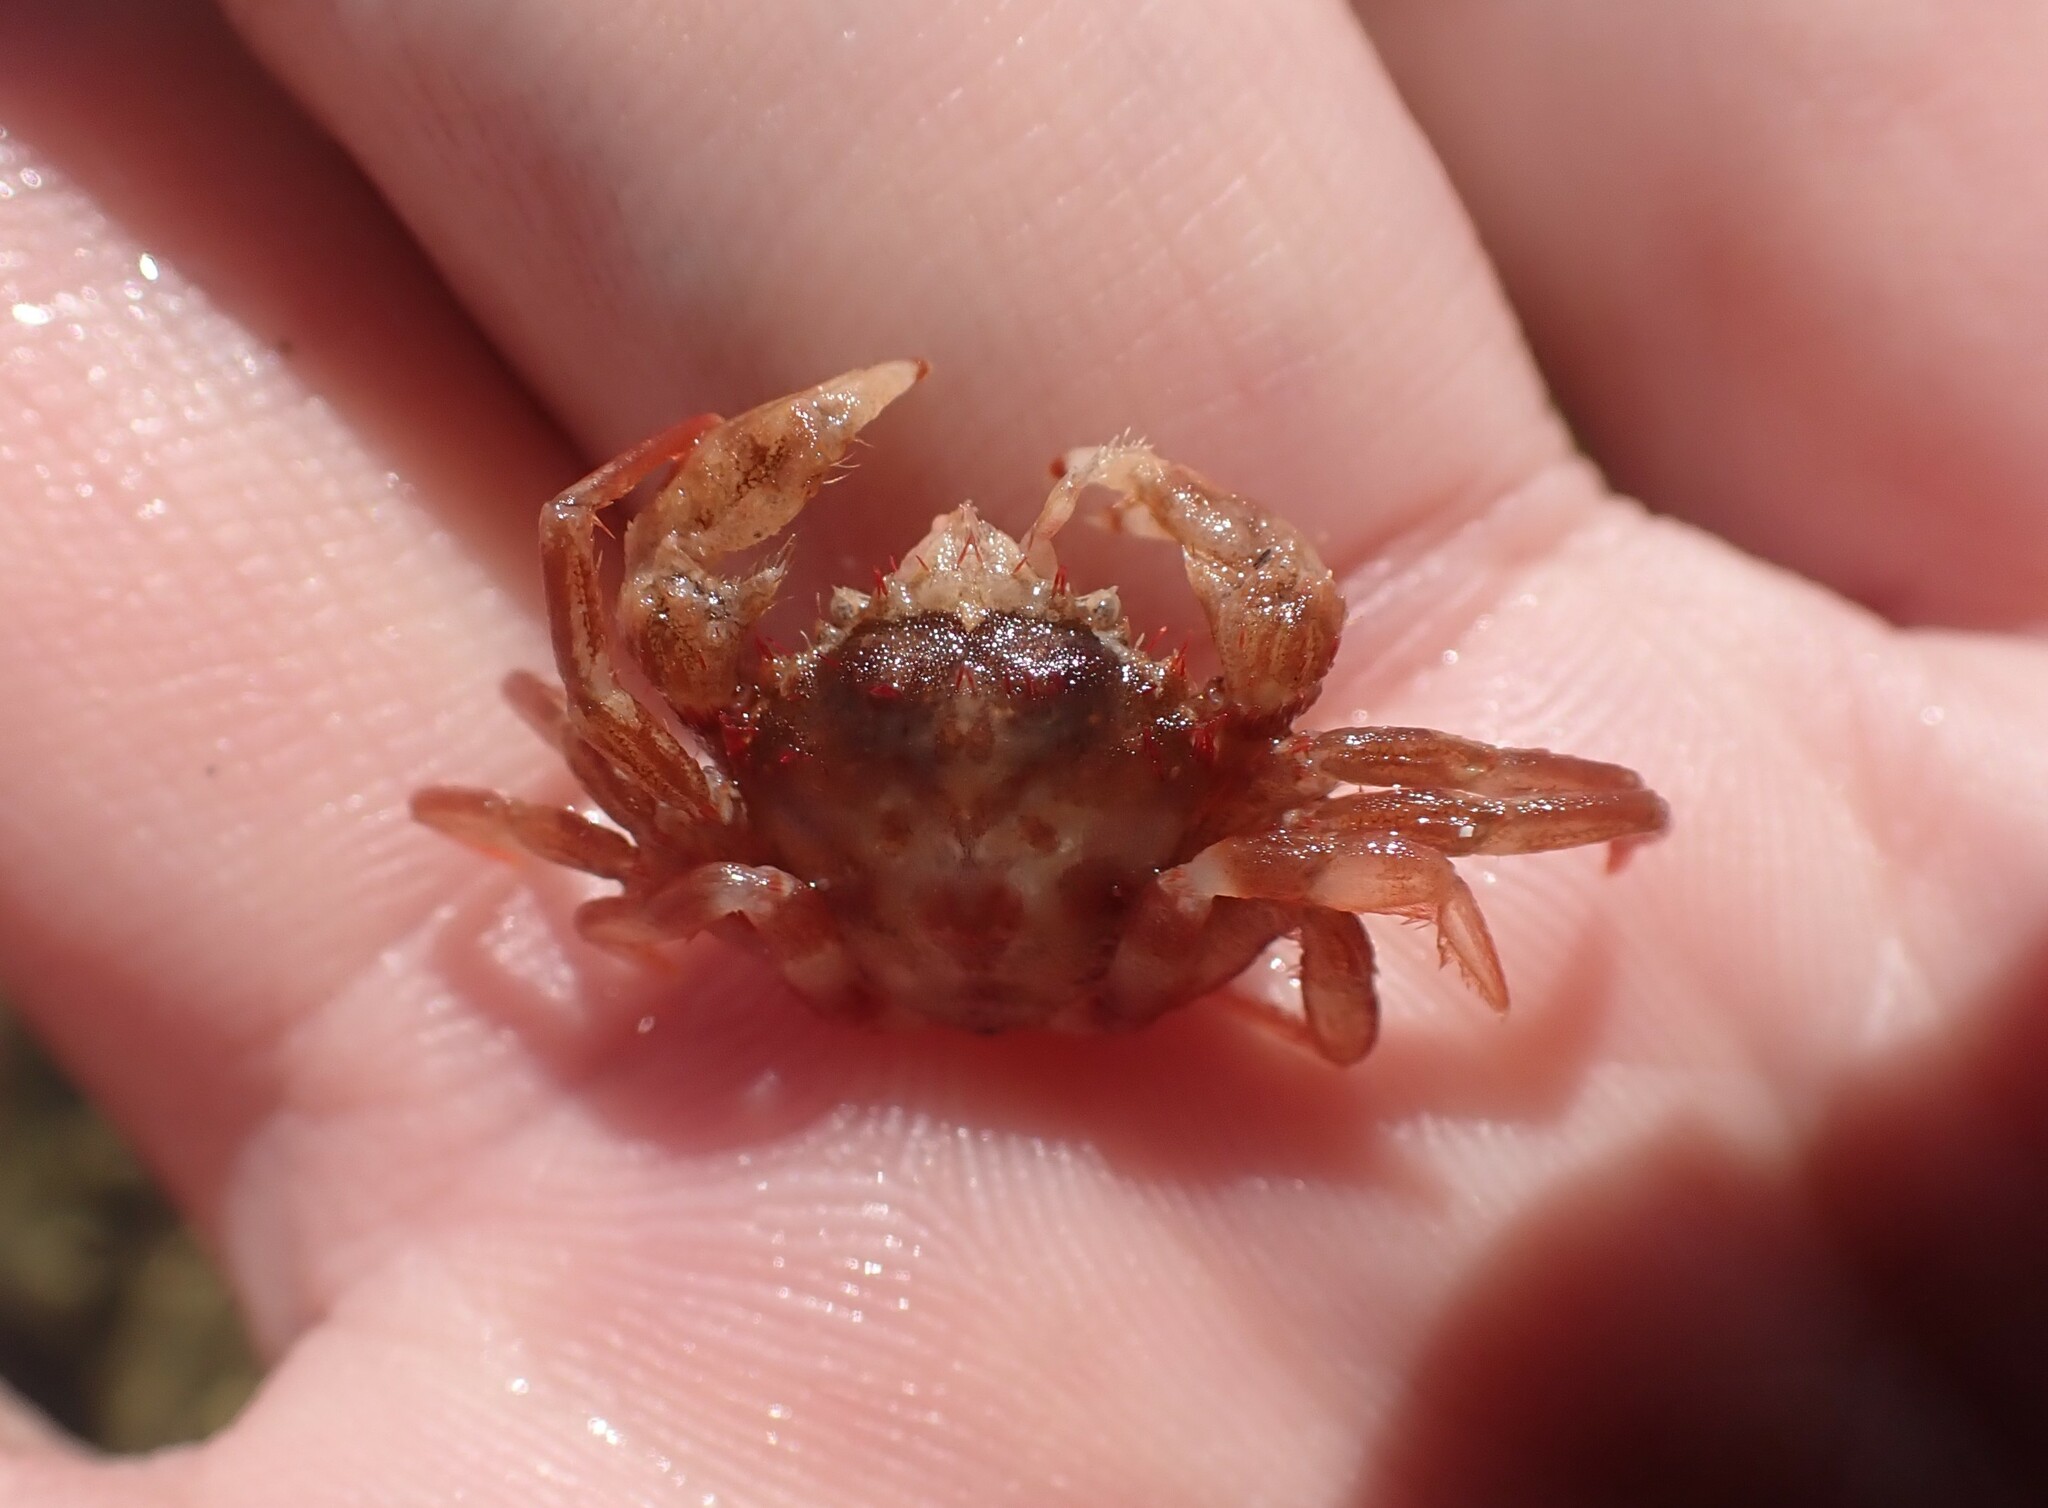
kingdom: Animalia
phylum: Arthropoda
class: Malacostraca
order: Decapoda
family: Inachidae
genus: Dumea
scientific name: Dumea latipes
